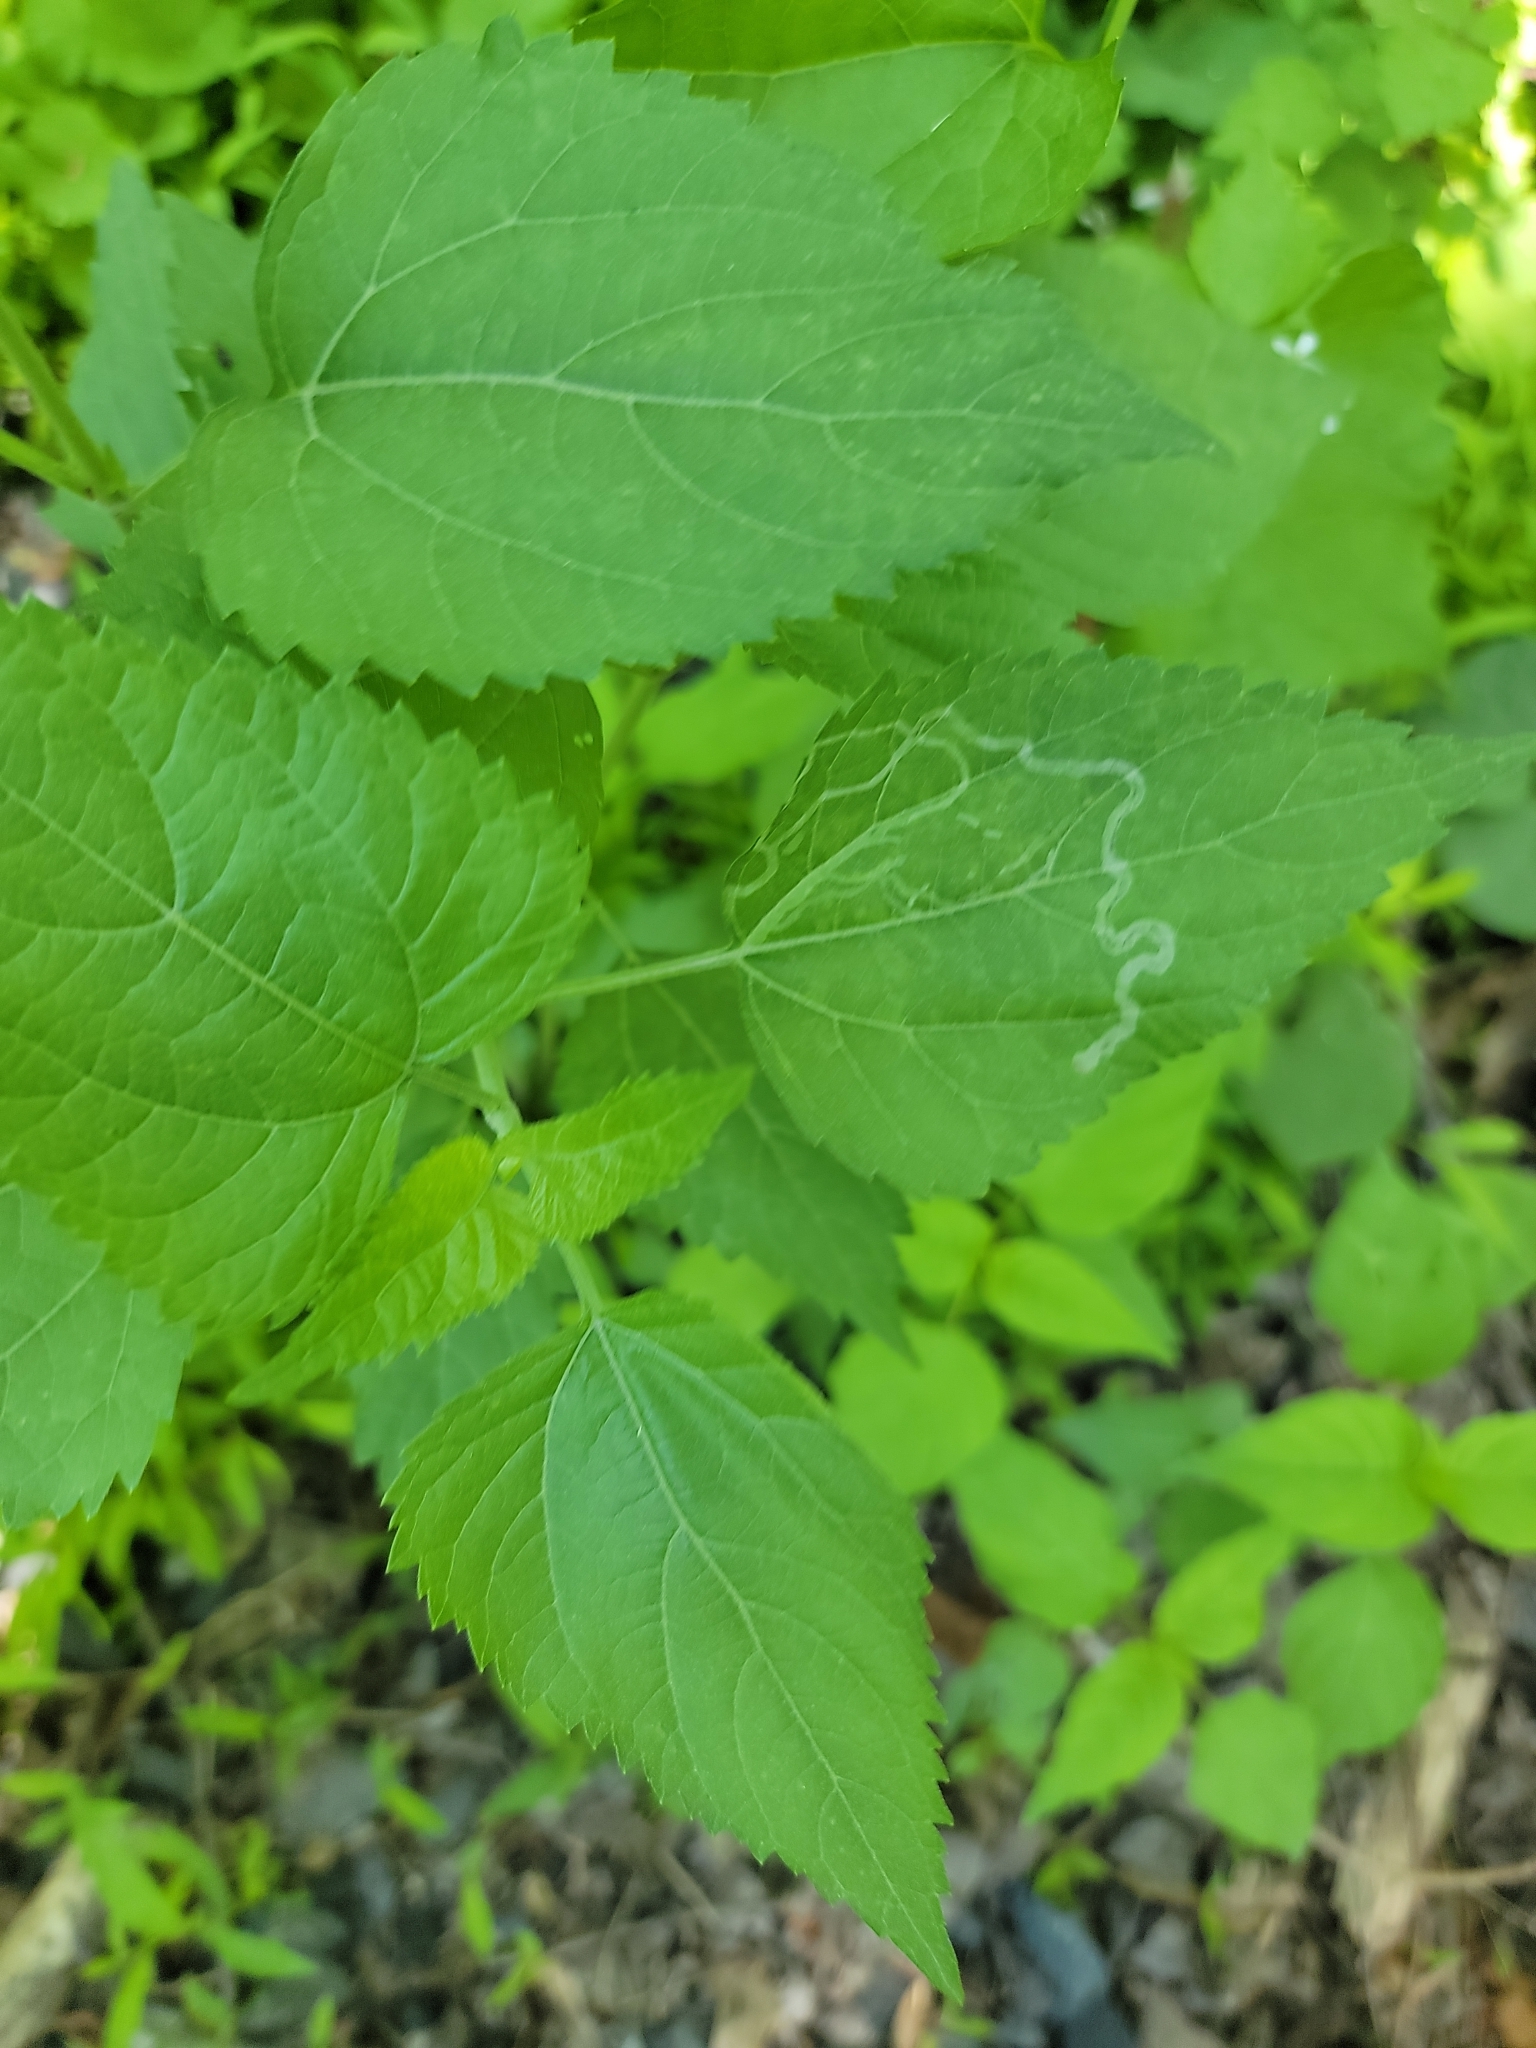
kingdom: Animalia
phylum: Arthropoda
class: Insecta
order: Diptera
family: Agromyzidae
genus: Liriomyza
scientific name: Liriomyza eupatoriella
